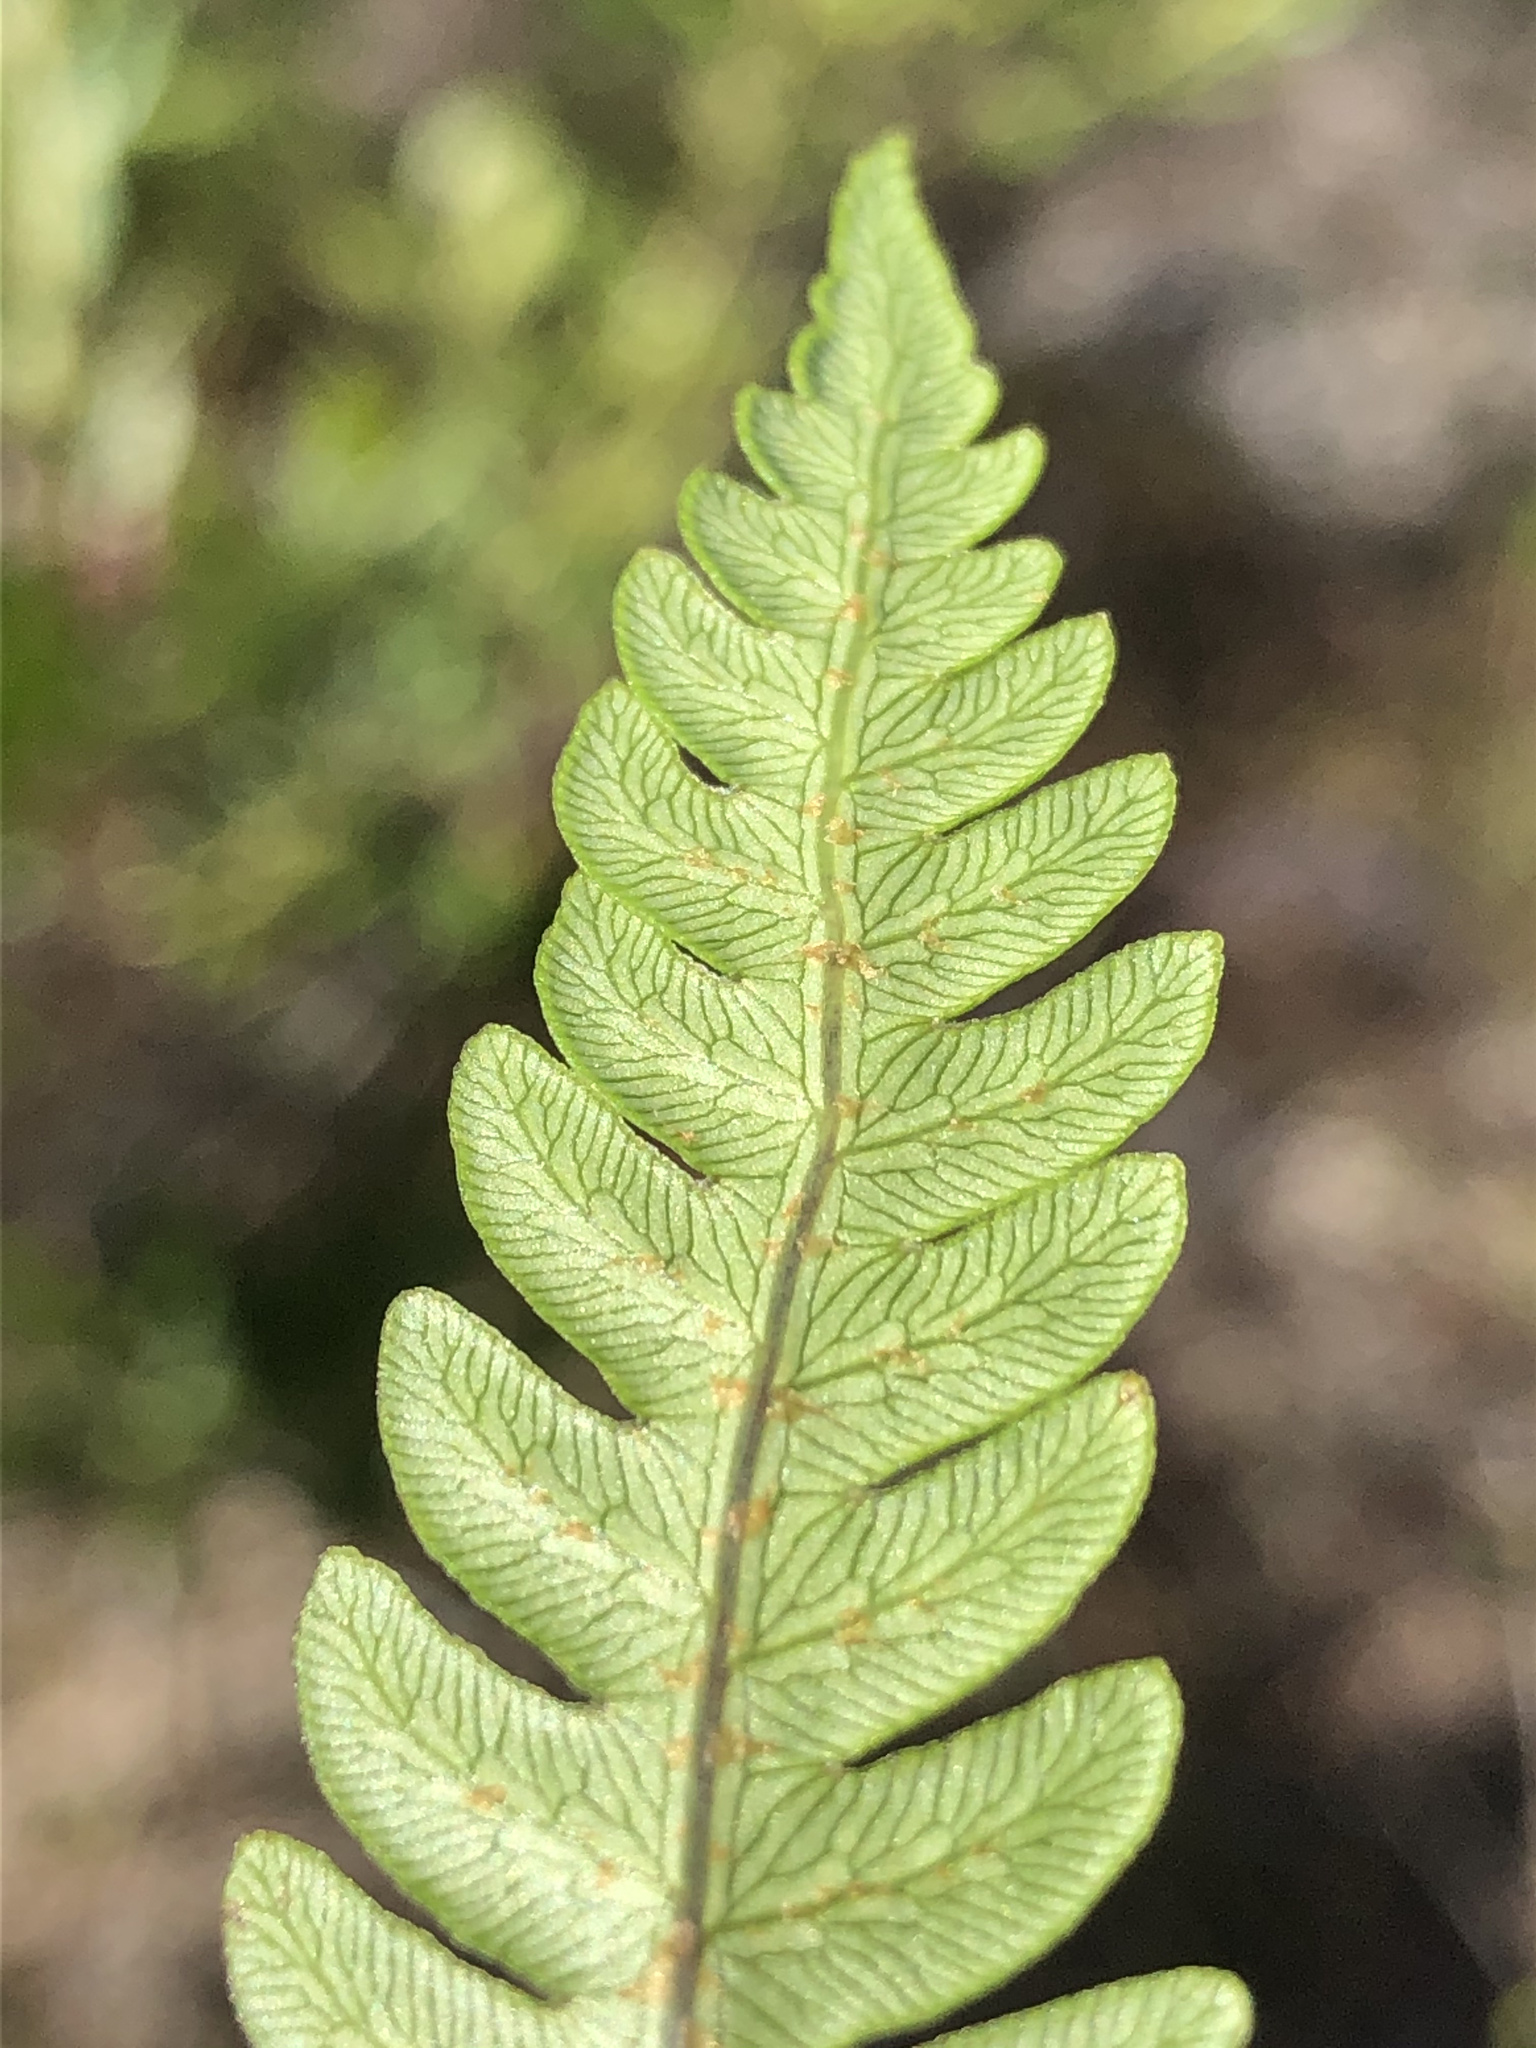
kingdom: Plantae
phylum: Tracheophyta
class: Polypodiopsida
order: Polypodiales
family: Blechnaceae
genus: Anchistea
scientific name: Anchistea virginica
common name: Virginia chain fern
